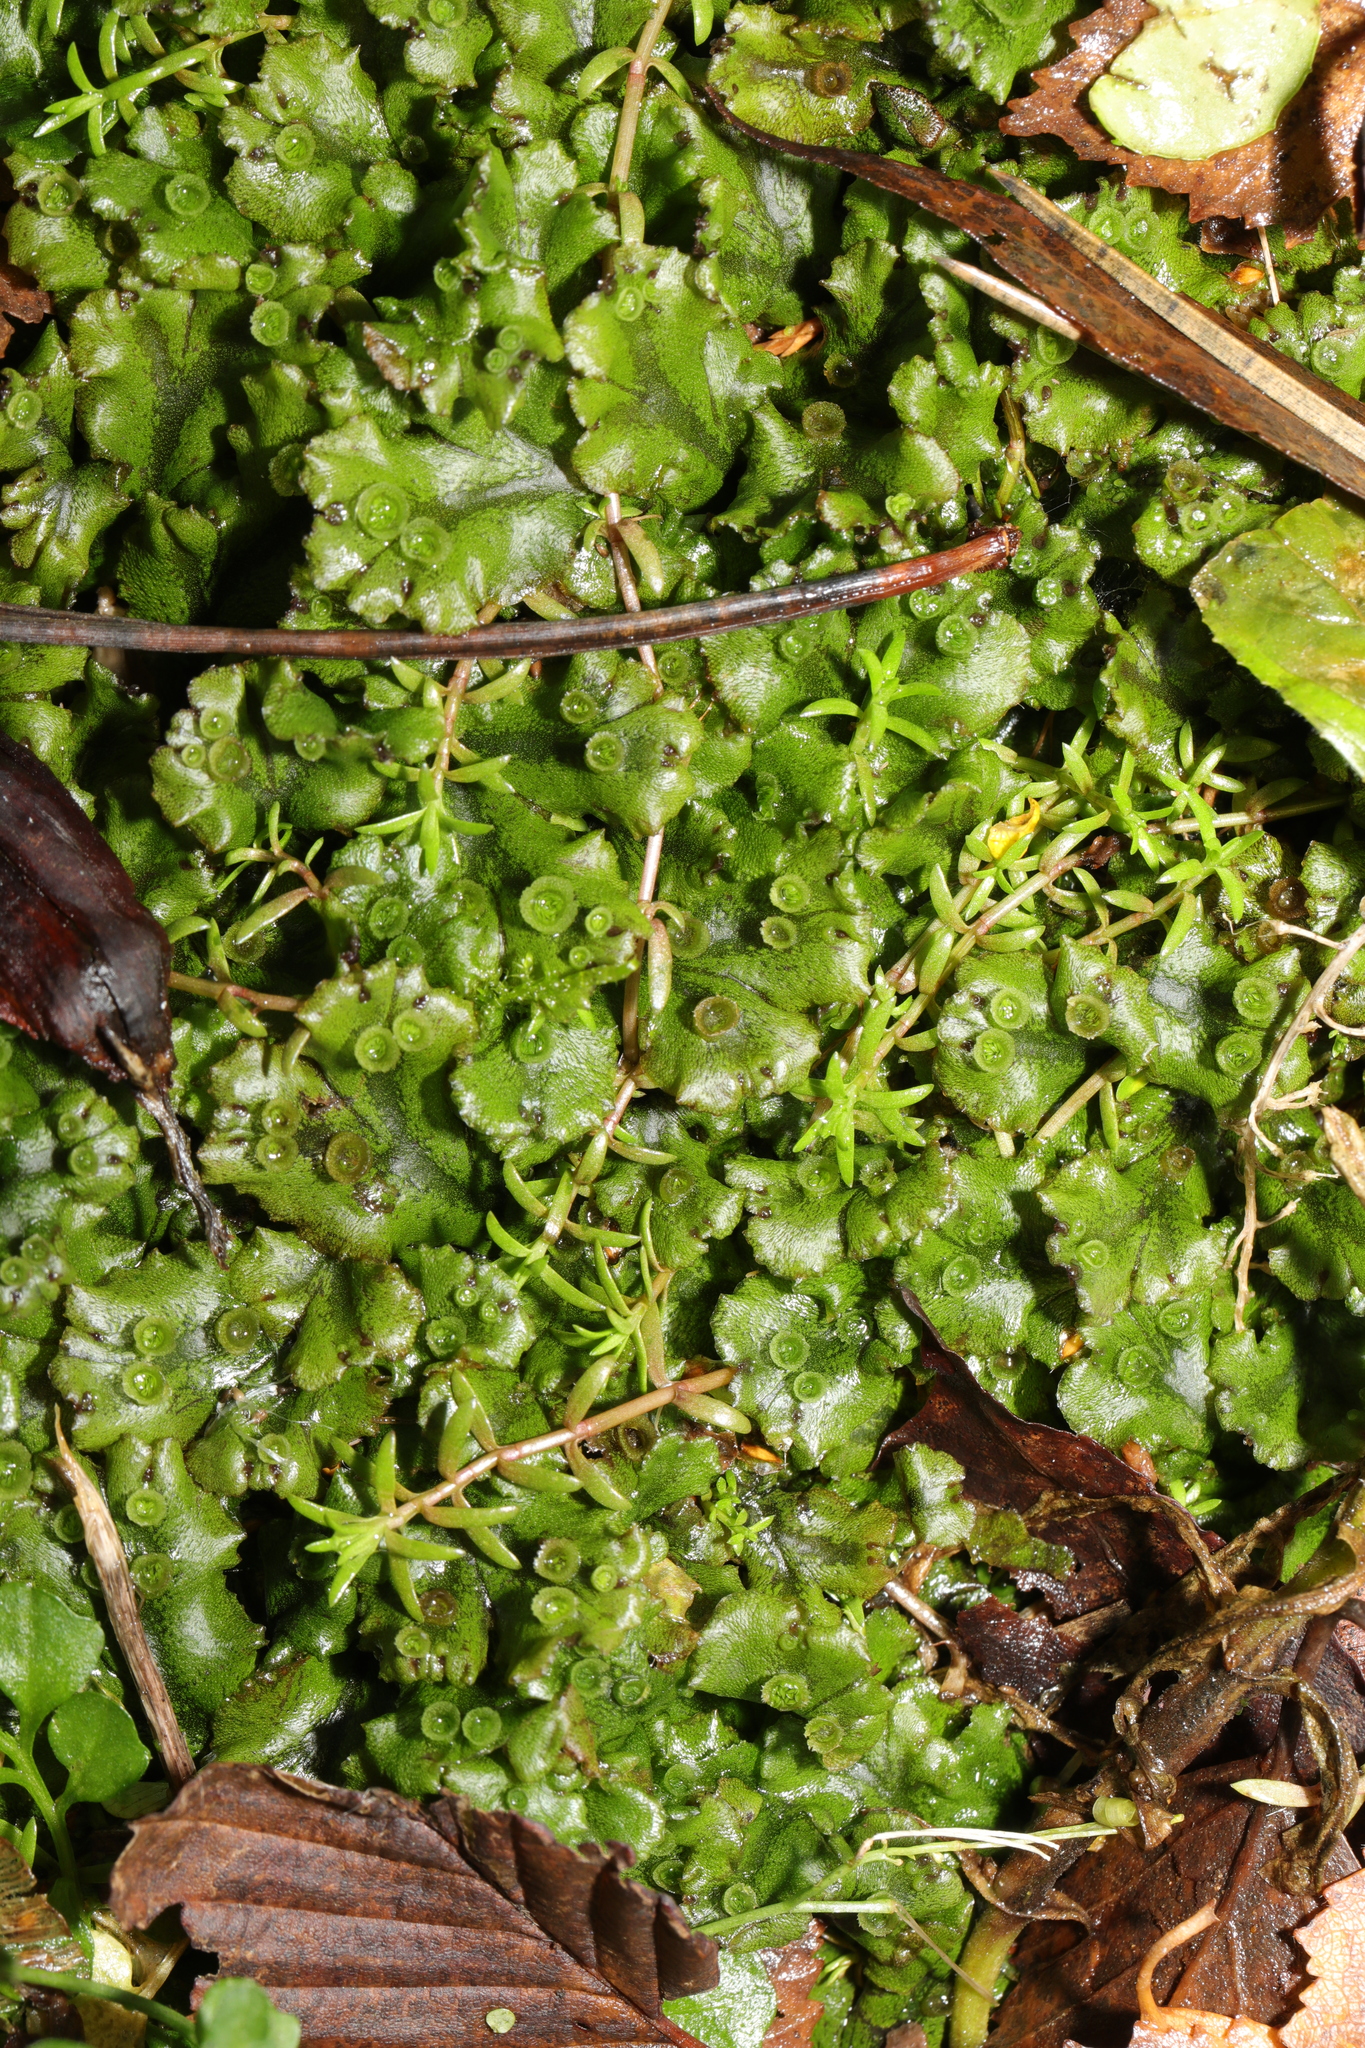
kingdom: Plantae
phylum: Marchantiophyta
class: Marchantiopsida
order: Marchantiales
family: Marchantiaceae
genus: Marchantia
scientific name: Marchantia polymorpha
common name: Common liverwort
